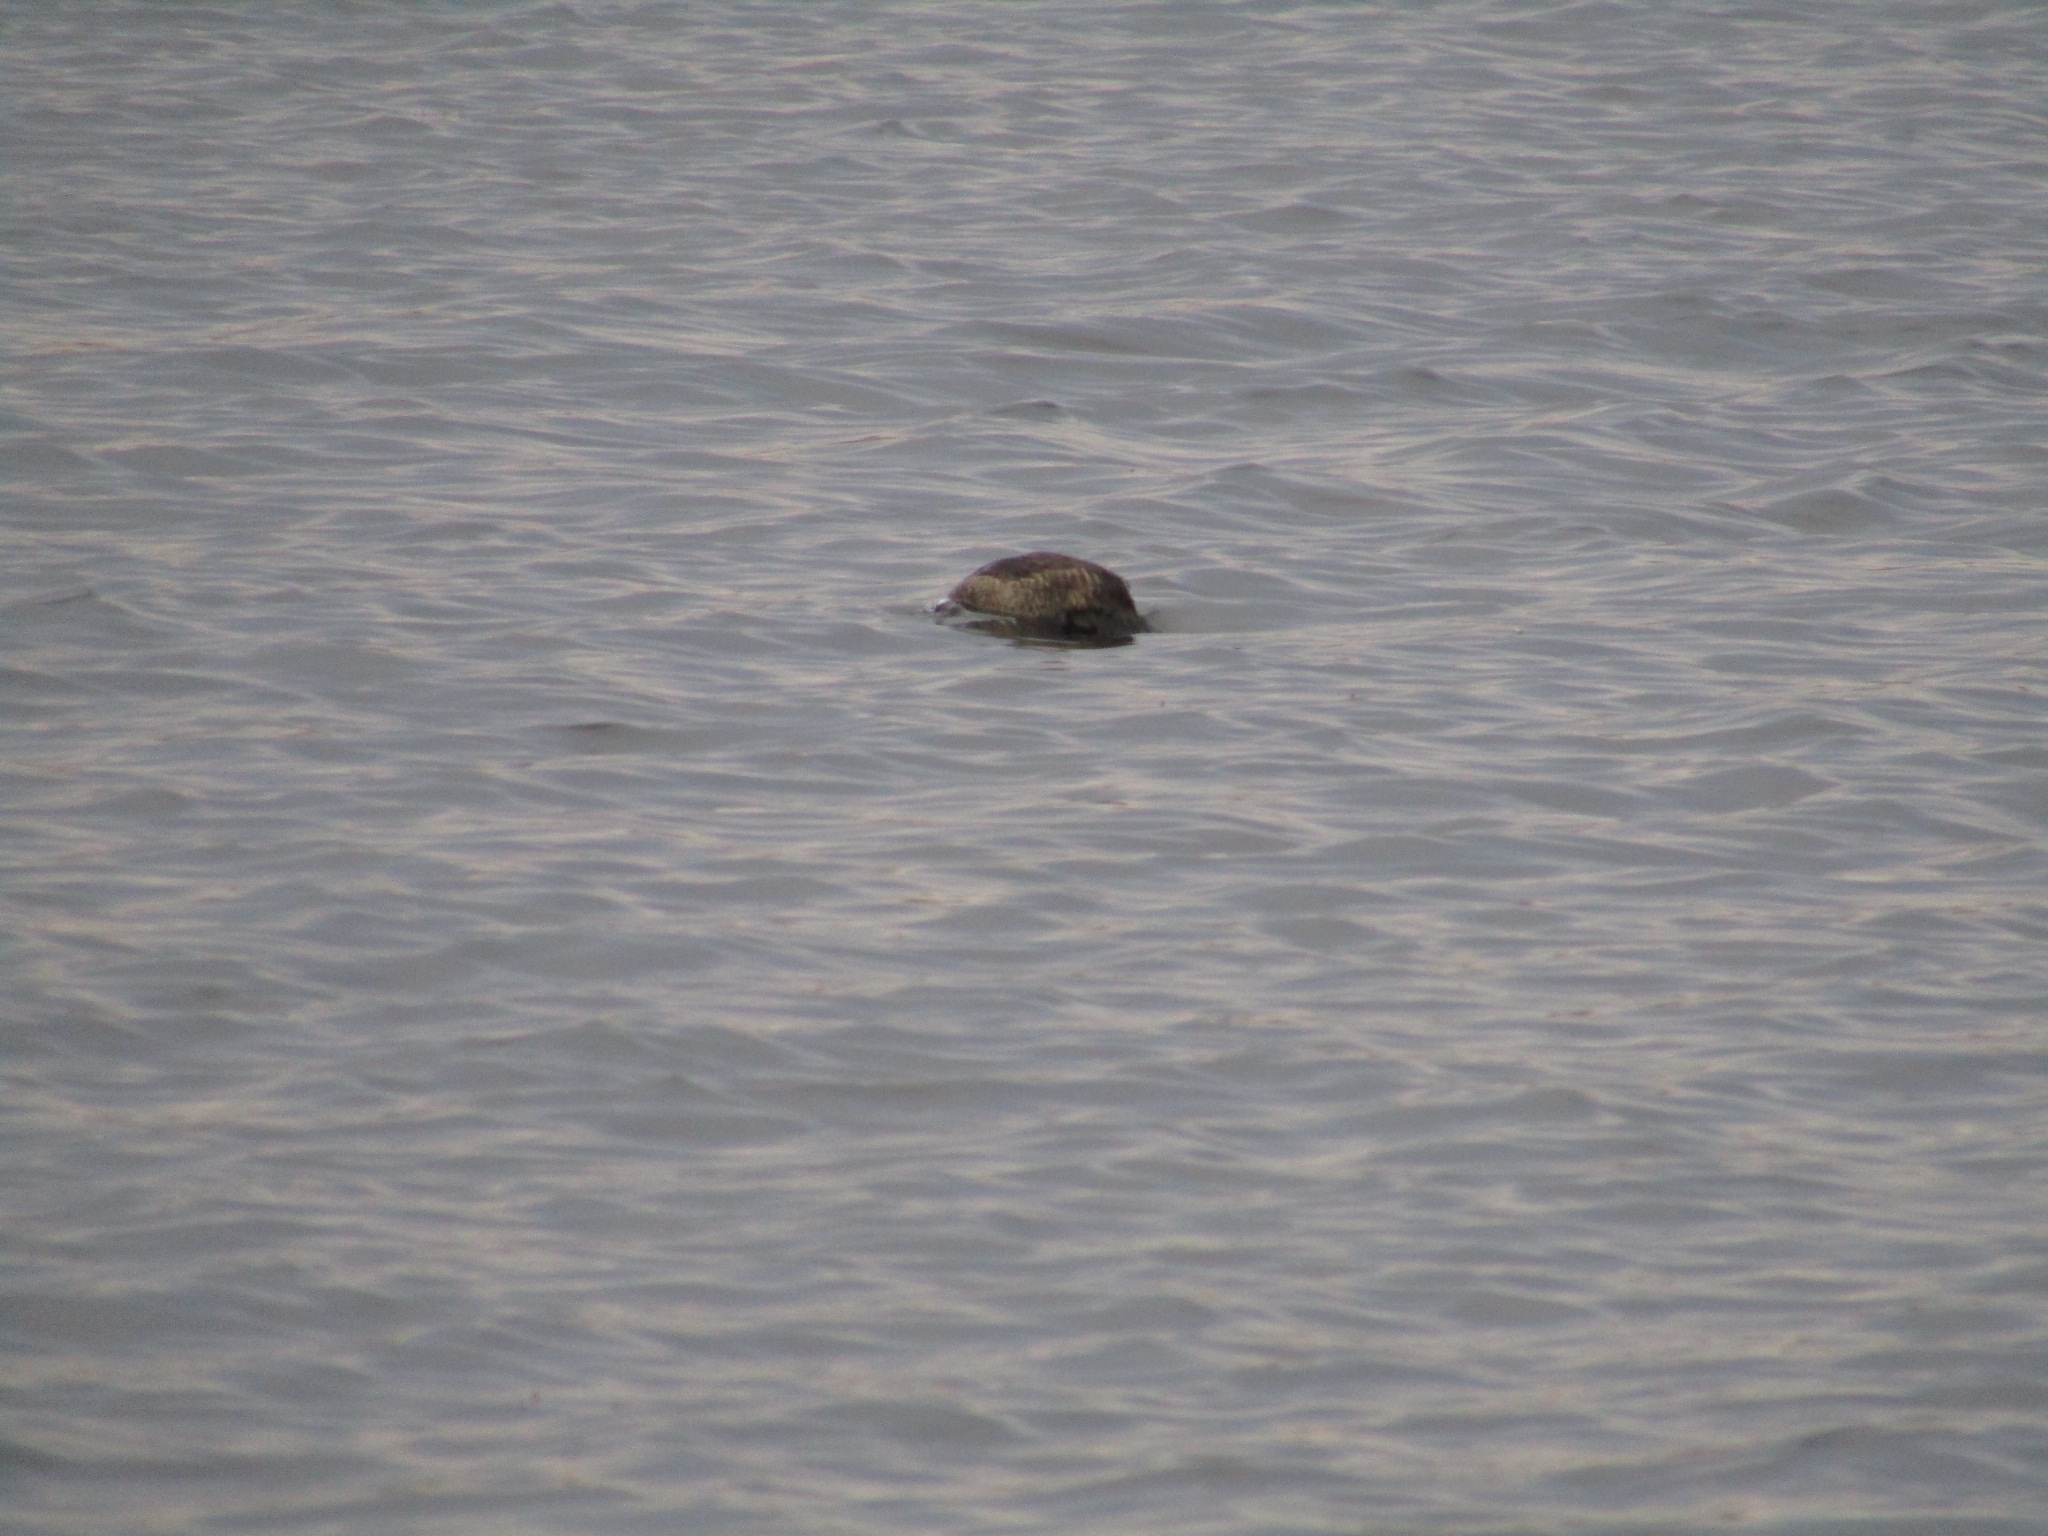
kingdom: Animalia
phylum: Chordata
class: Aves
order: Anseriformes
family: Anatidae
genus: Oxyura
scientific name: Oxyura jamaicensis
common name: Ruddy duck
